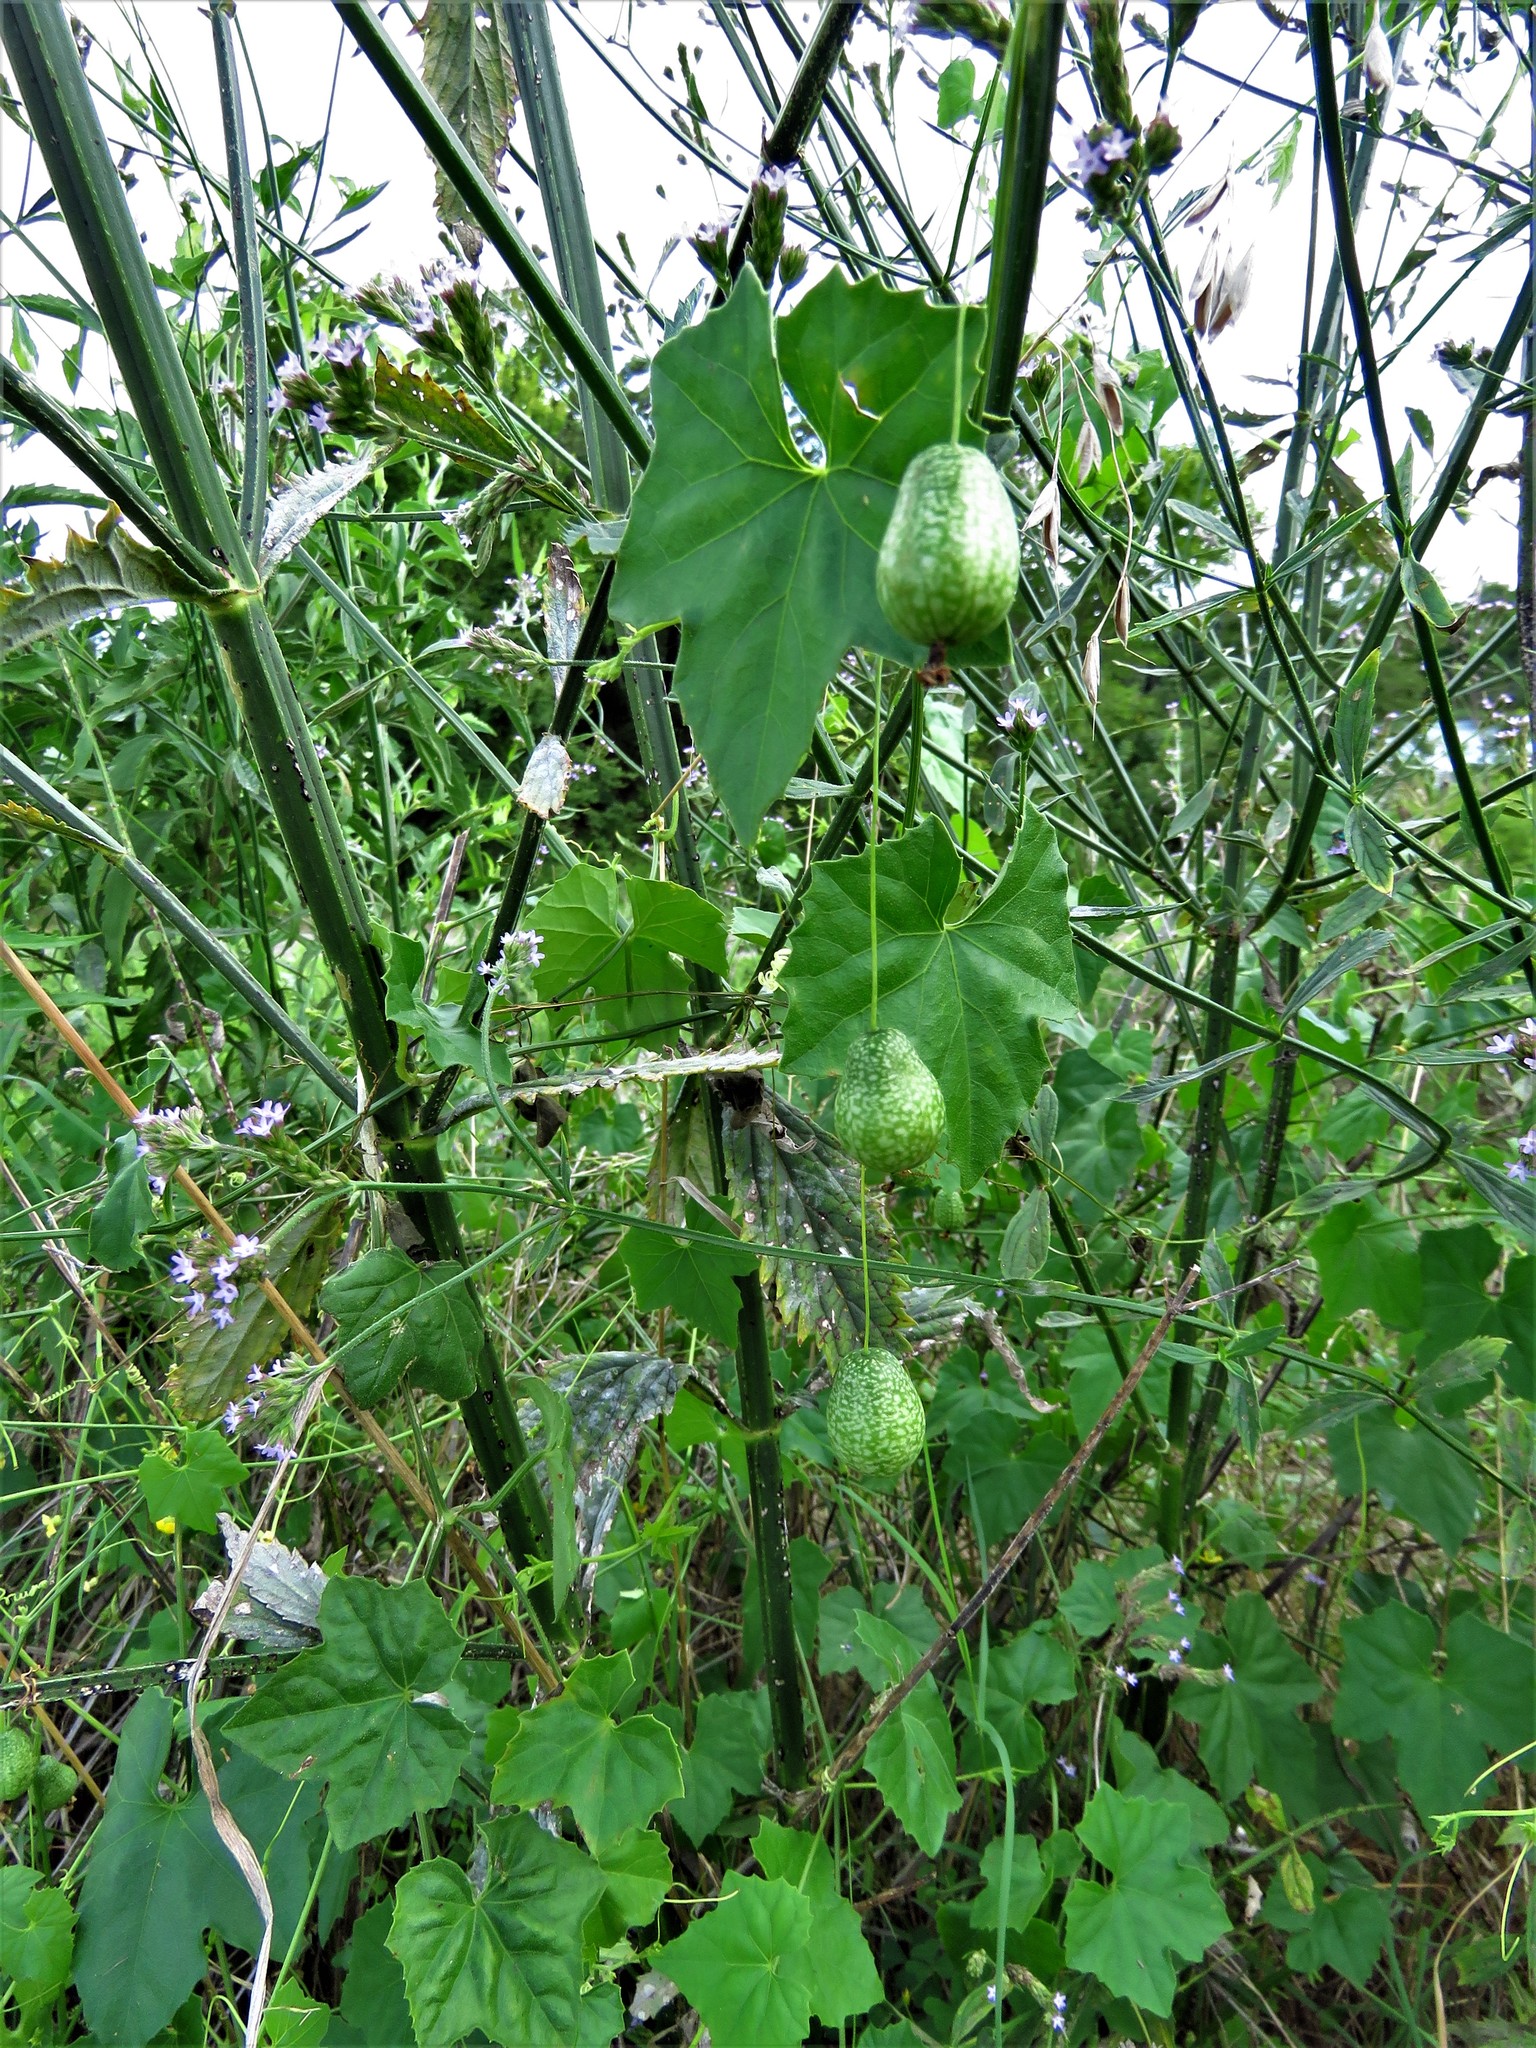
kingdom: Plantae
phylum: Tracheophyta
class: Magnoliopsida
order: Cucurbitales
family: Cucurbitaceae
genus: Melothria
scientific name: Melothria pendula
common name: Creeping-cucumber
